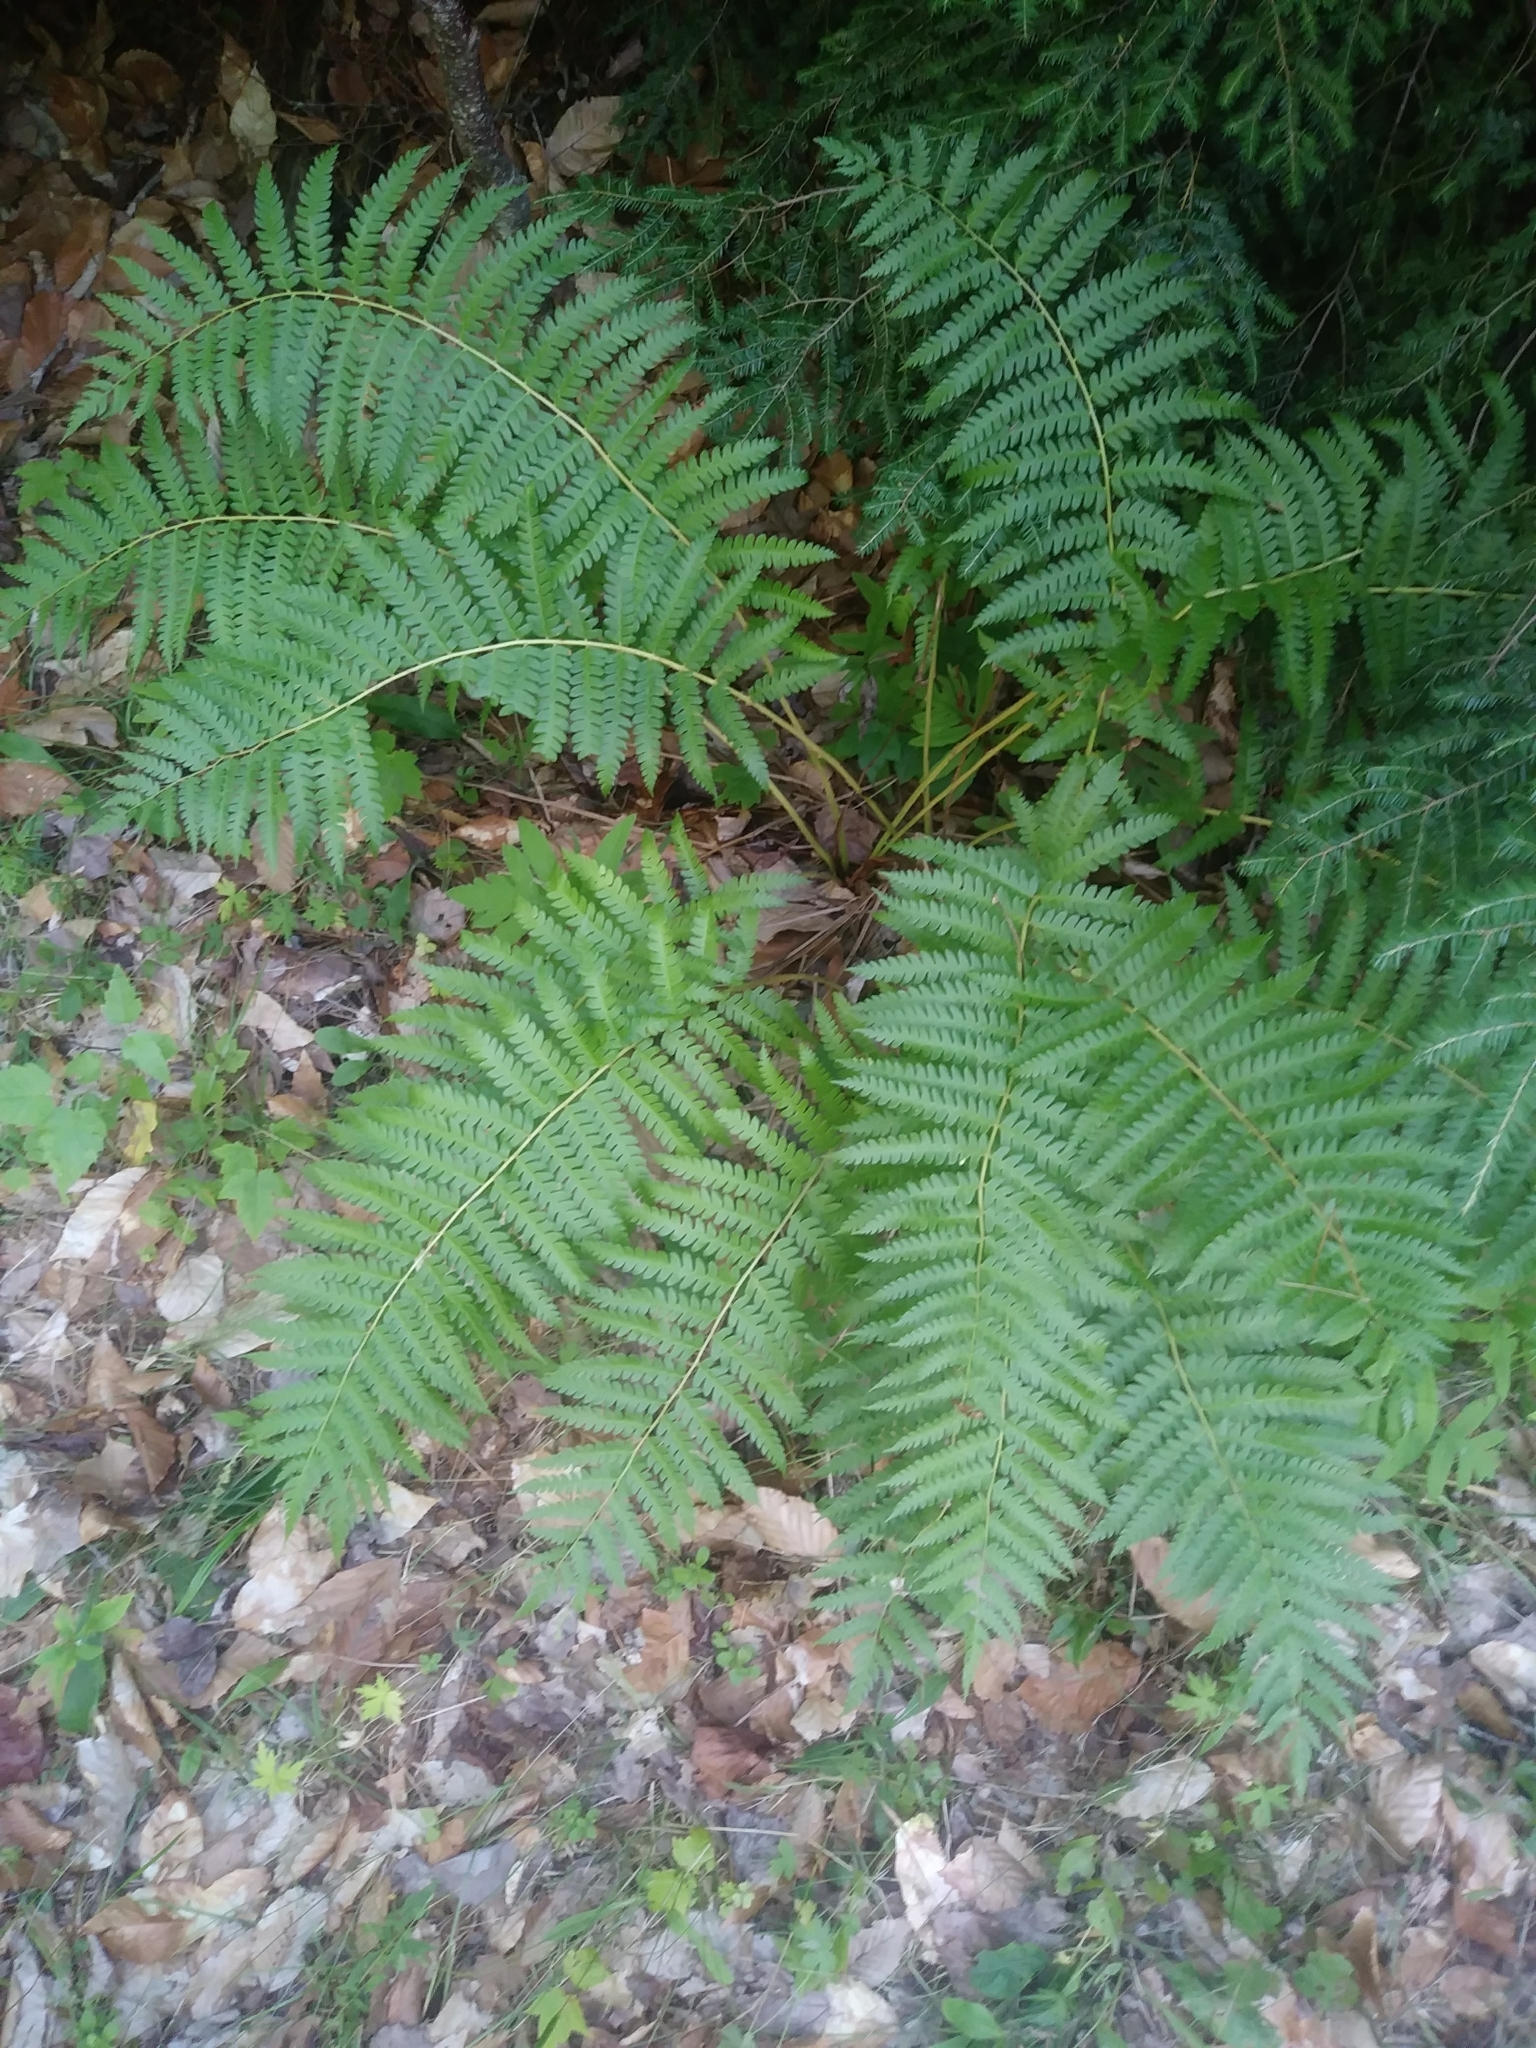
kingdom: Plantae
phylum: Tracheophyta
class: Polypodiopsida
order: Osmundales
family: Osmundaceae
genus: Osmundastrum
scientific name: Osmundastrum cinnamomeum
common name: Cinnamon fern
